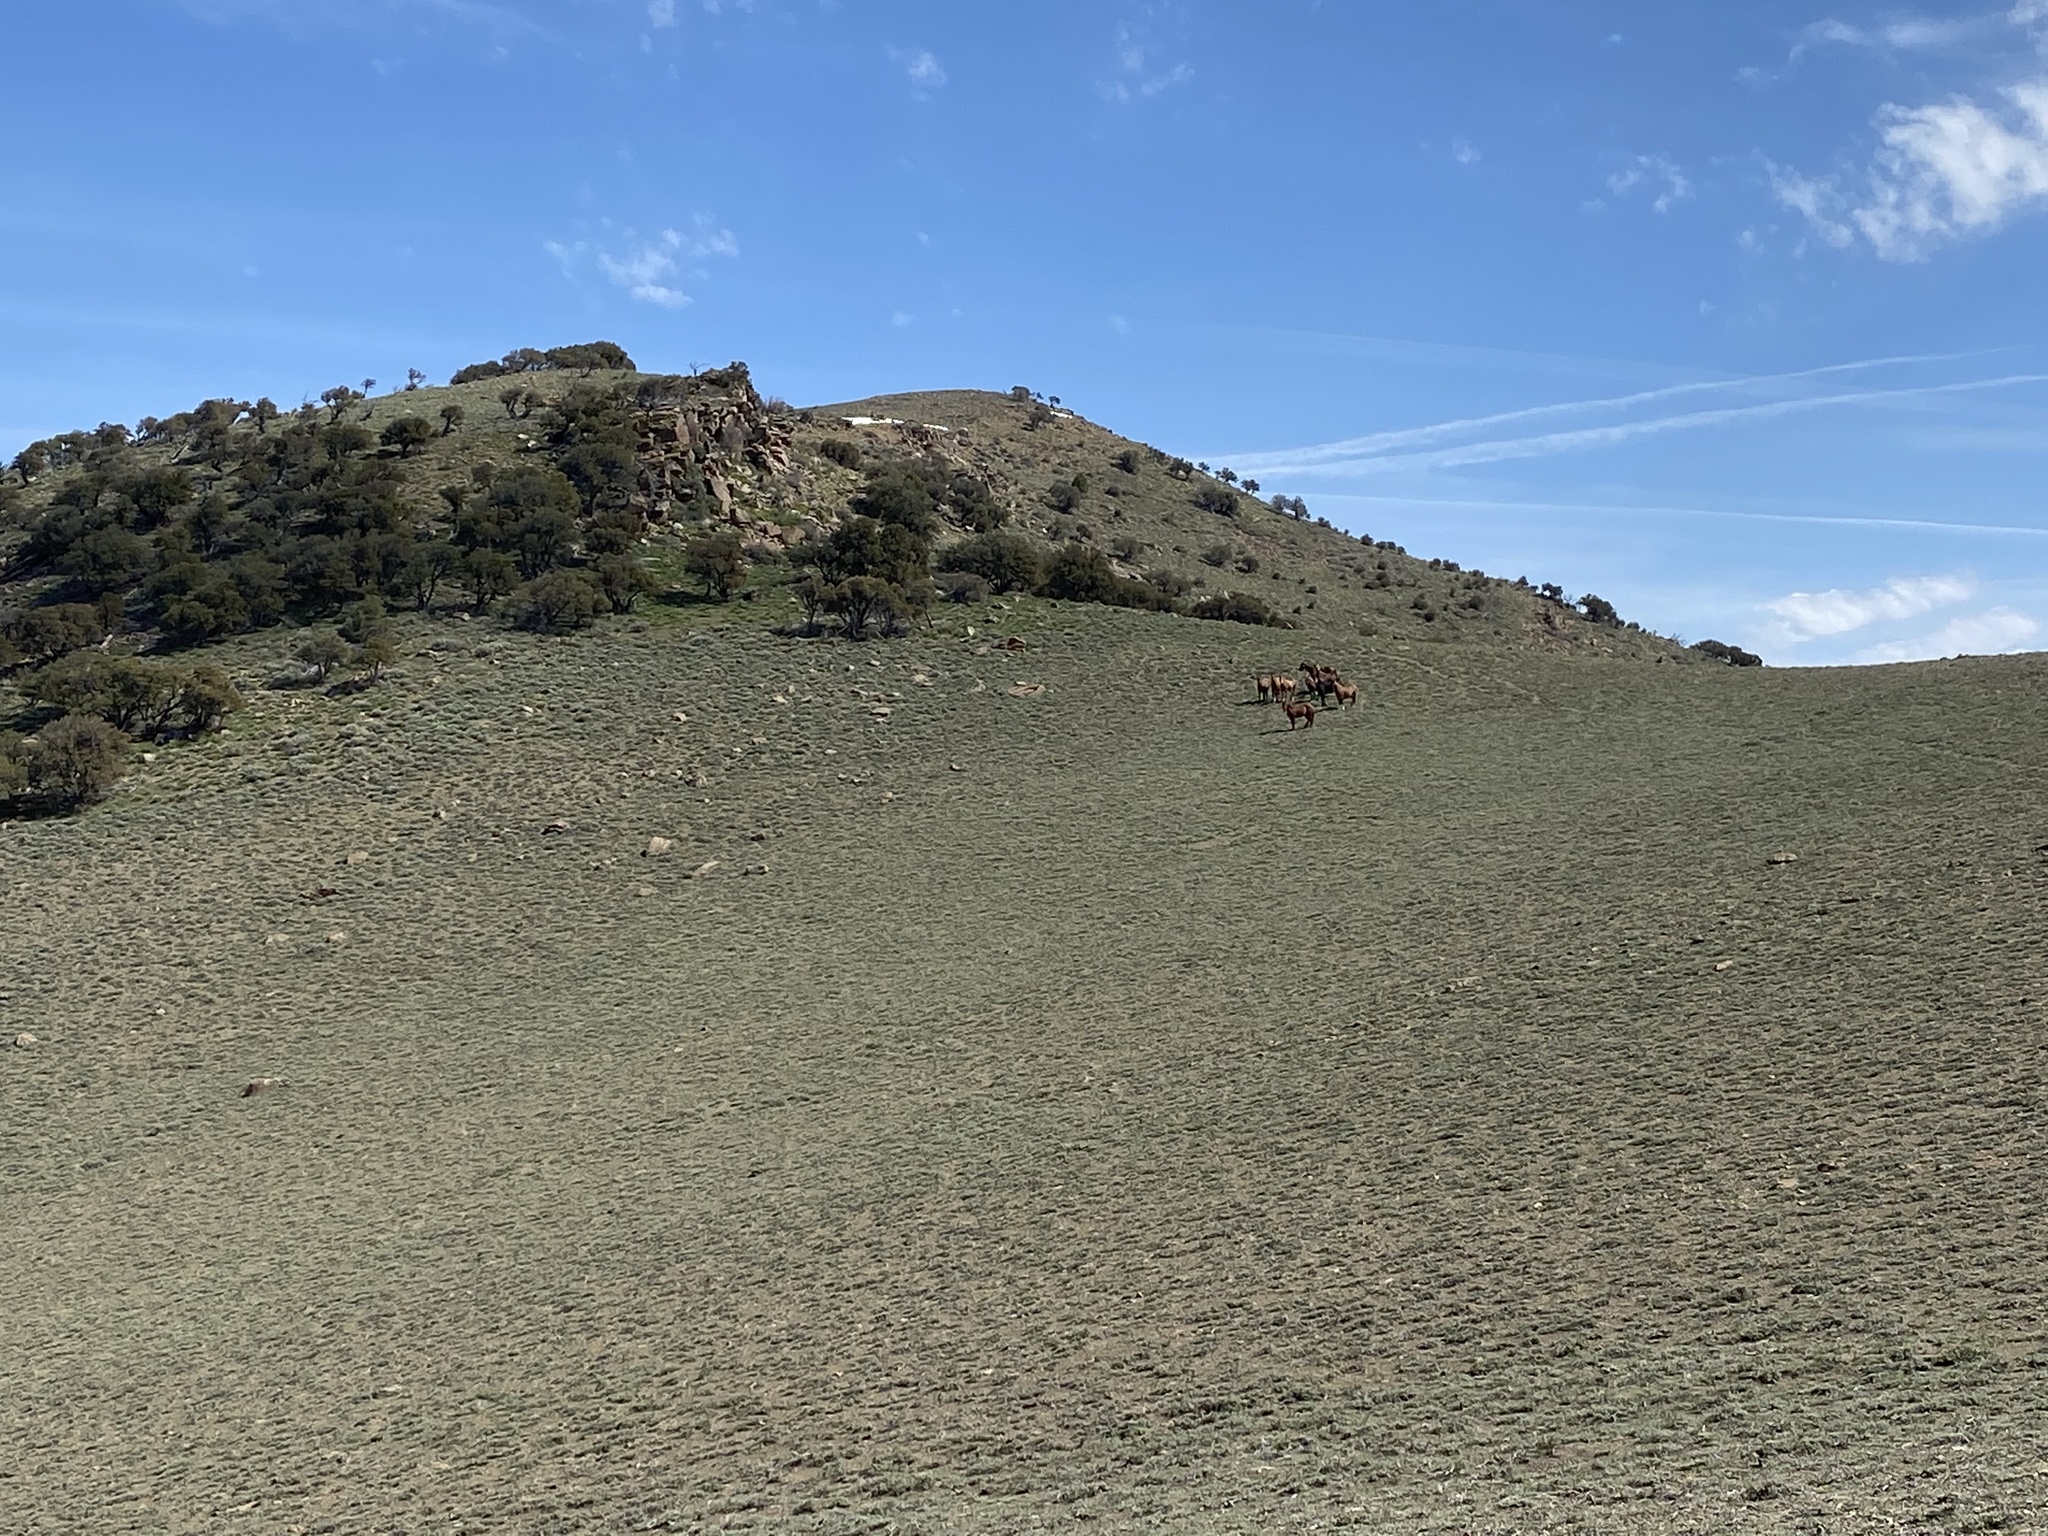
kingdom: Animalia
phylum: Chordata
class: Mammalia
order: Perissodactyla
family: Equidae
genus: Equus
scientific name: Equus caballus
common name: Horse
